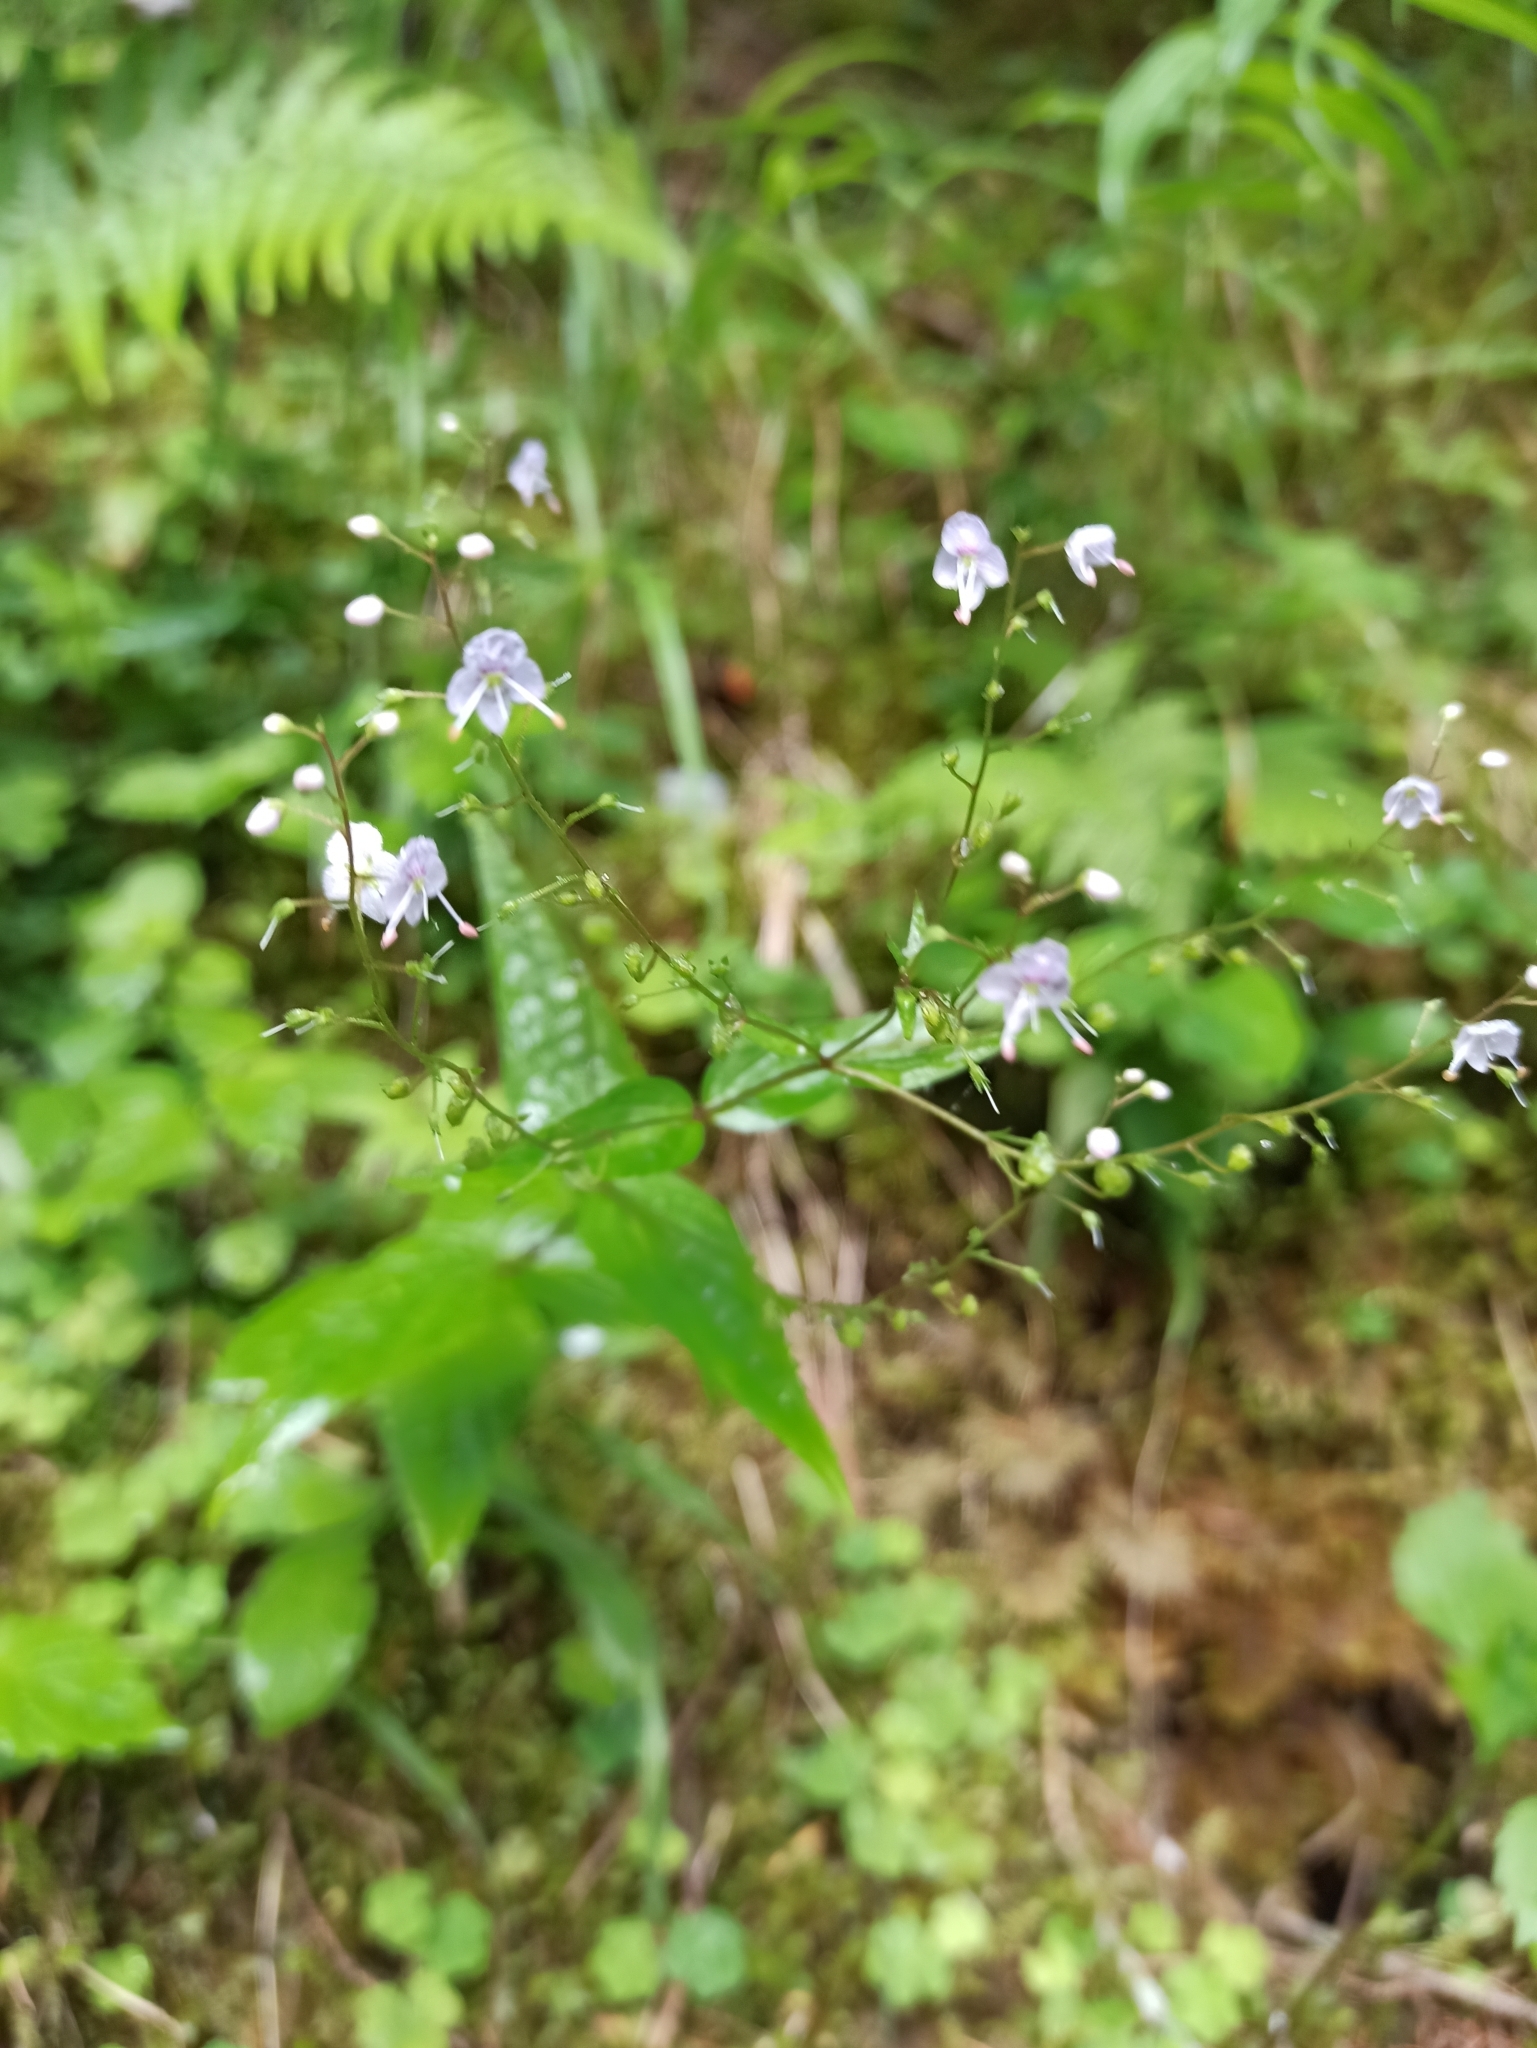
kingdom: Plantae
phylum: Tracheophyta
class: Magnoliopsida
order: Lamiales
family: Plantaginaceae
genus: Veronica
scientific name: Veronica urticifolia
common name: Nettle-leaf speedwell
